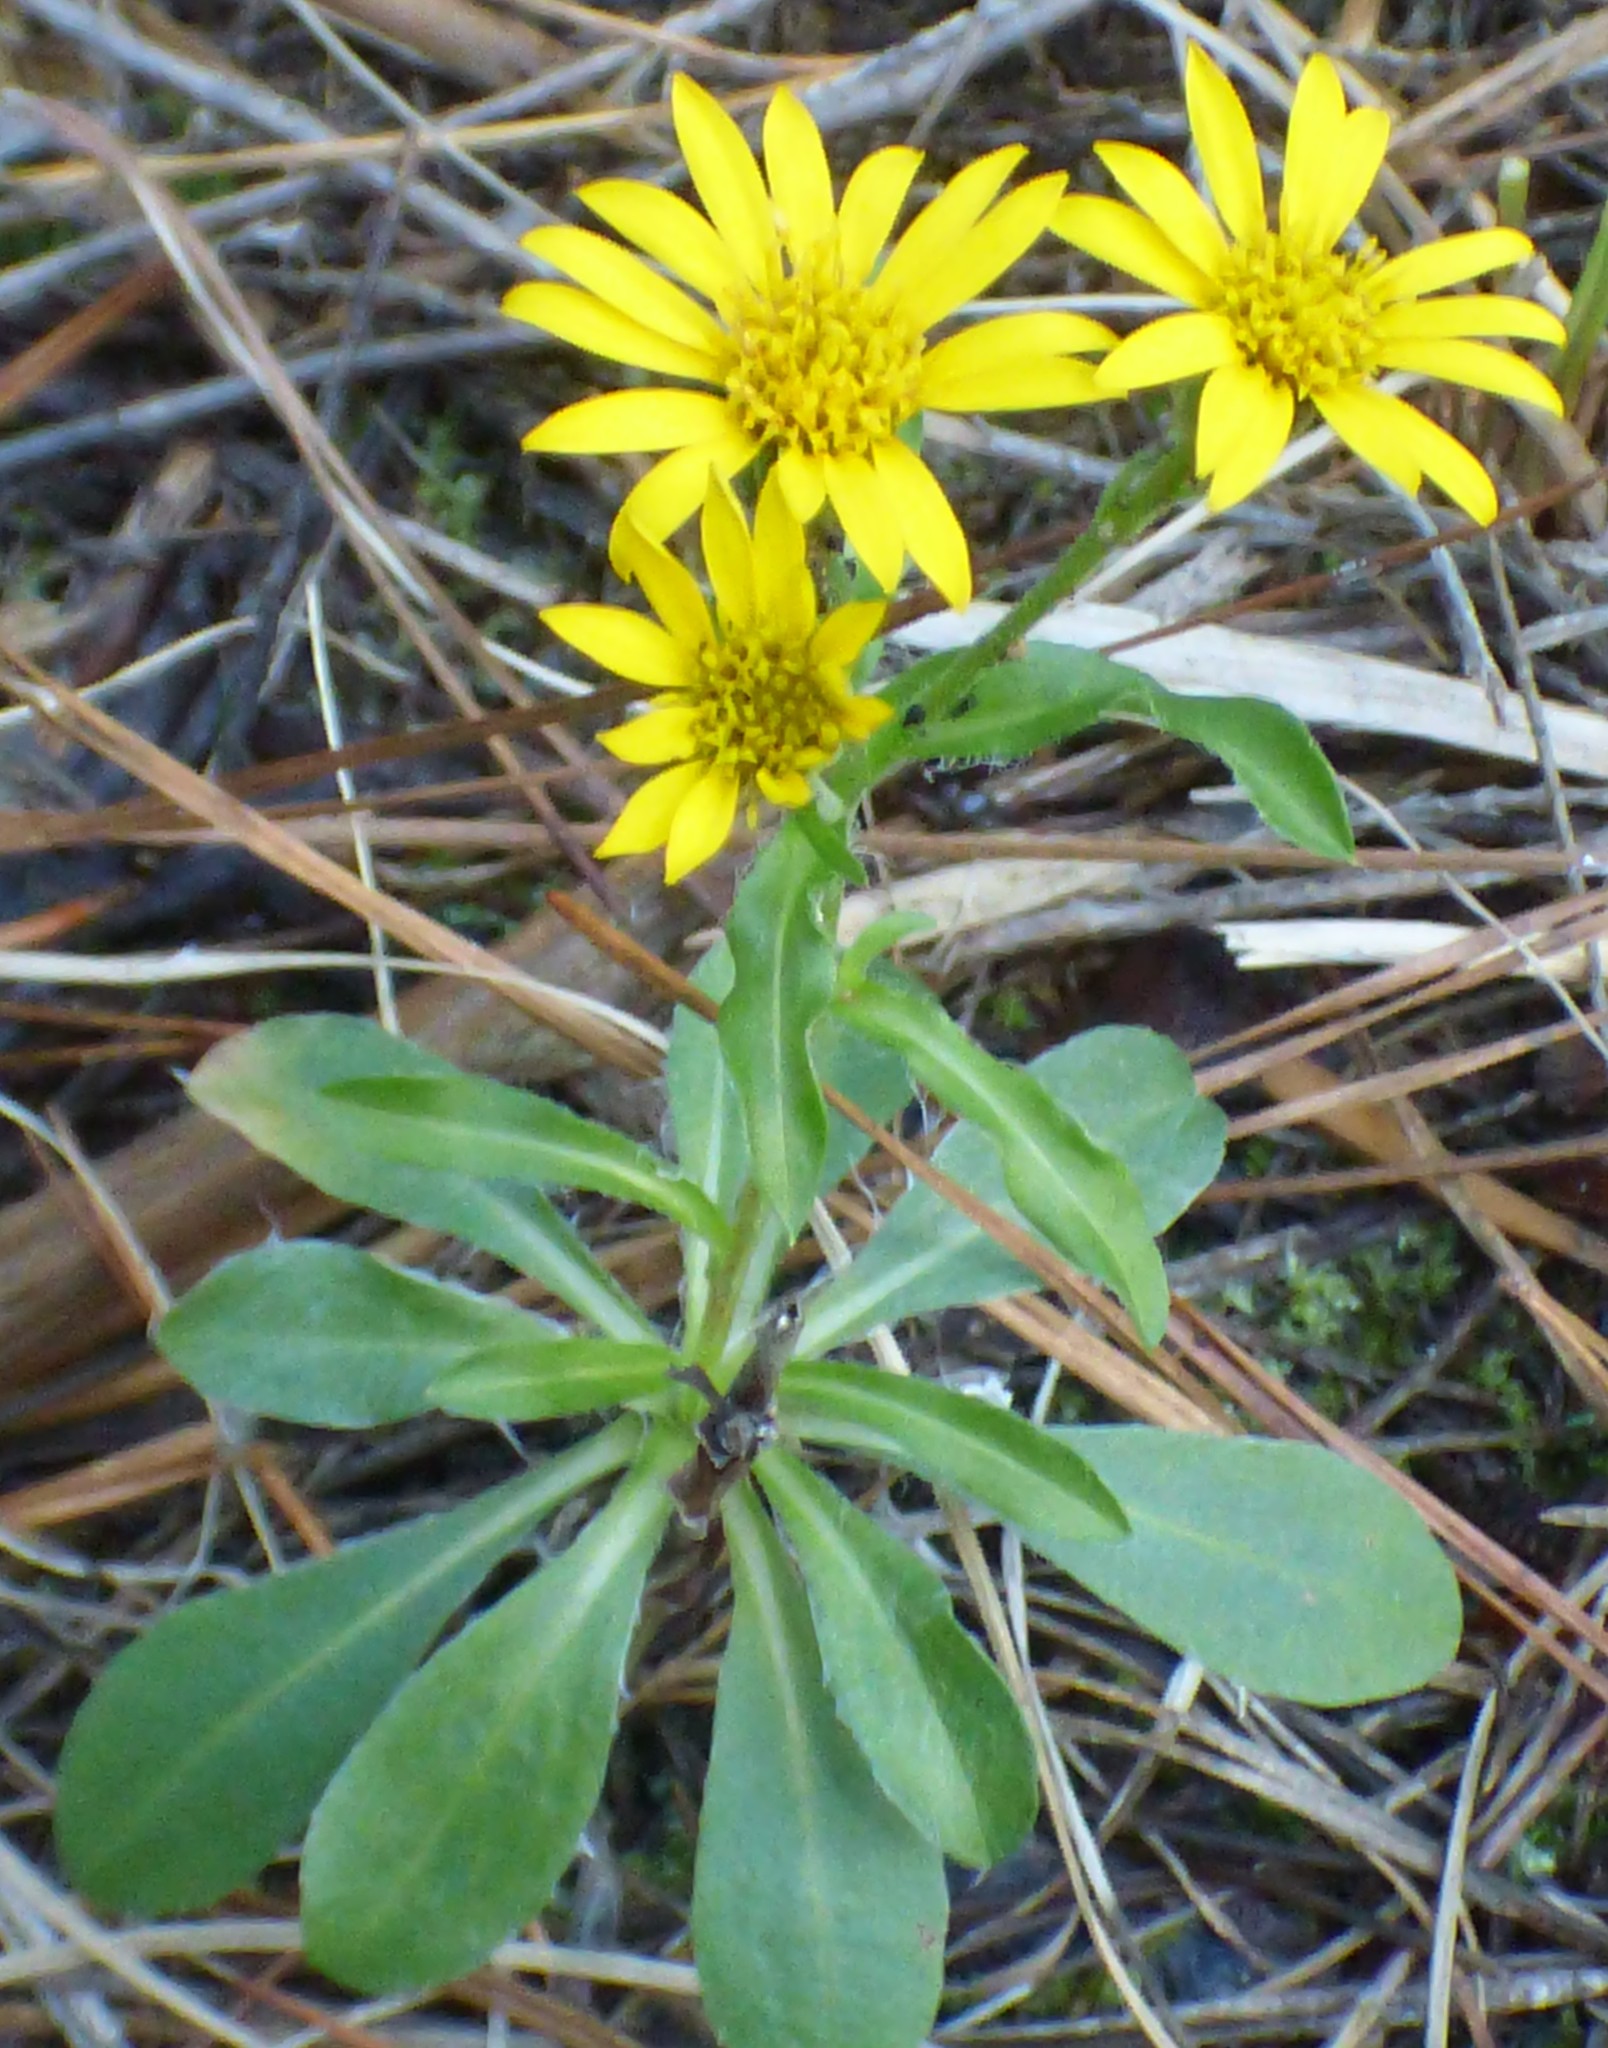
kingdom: Plantae
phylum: Tracheophyta
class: Magnoliopsida
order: Asterales
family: Asteraceae
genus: Chrysopsis
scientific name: Chrysopsis mariana
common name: Maryland golden-aster
